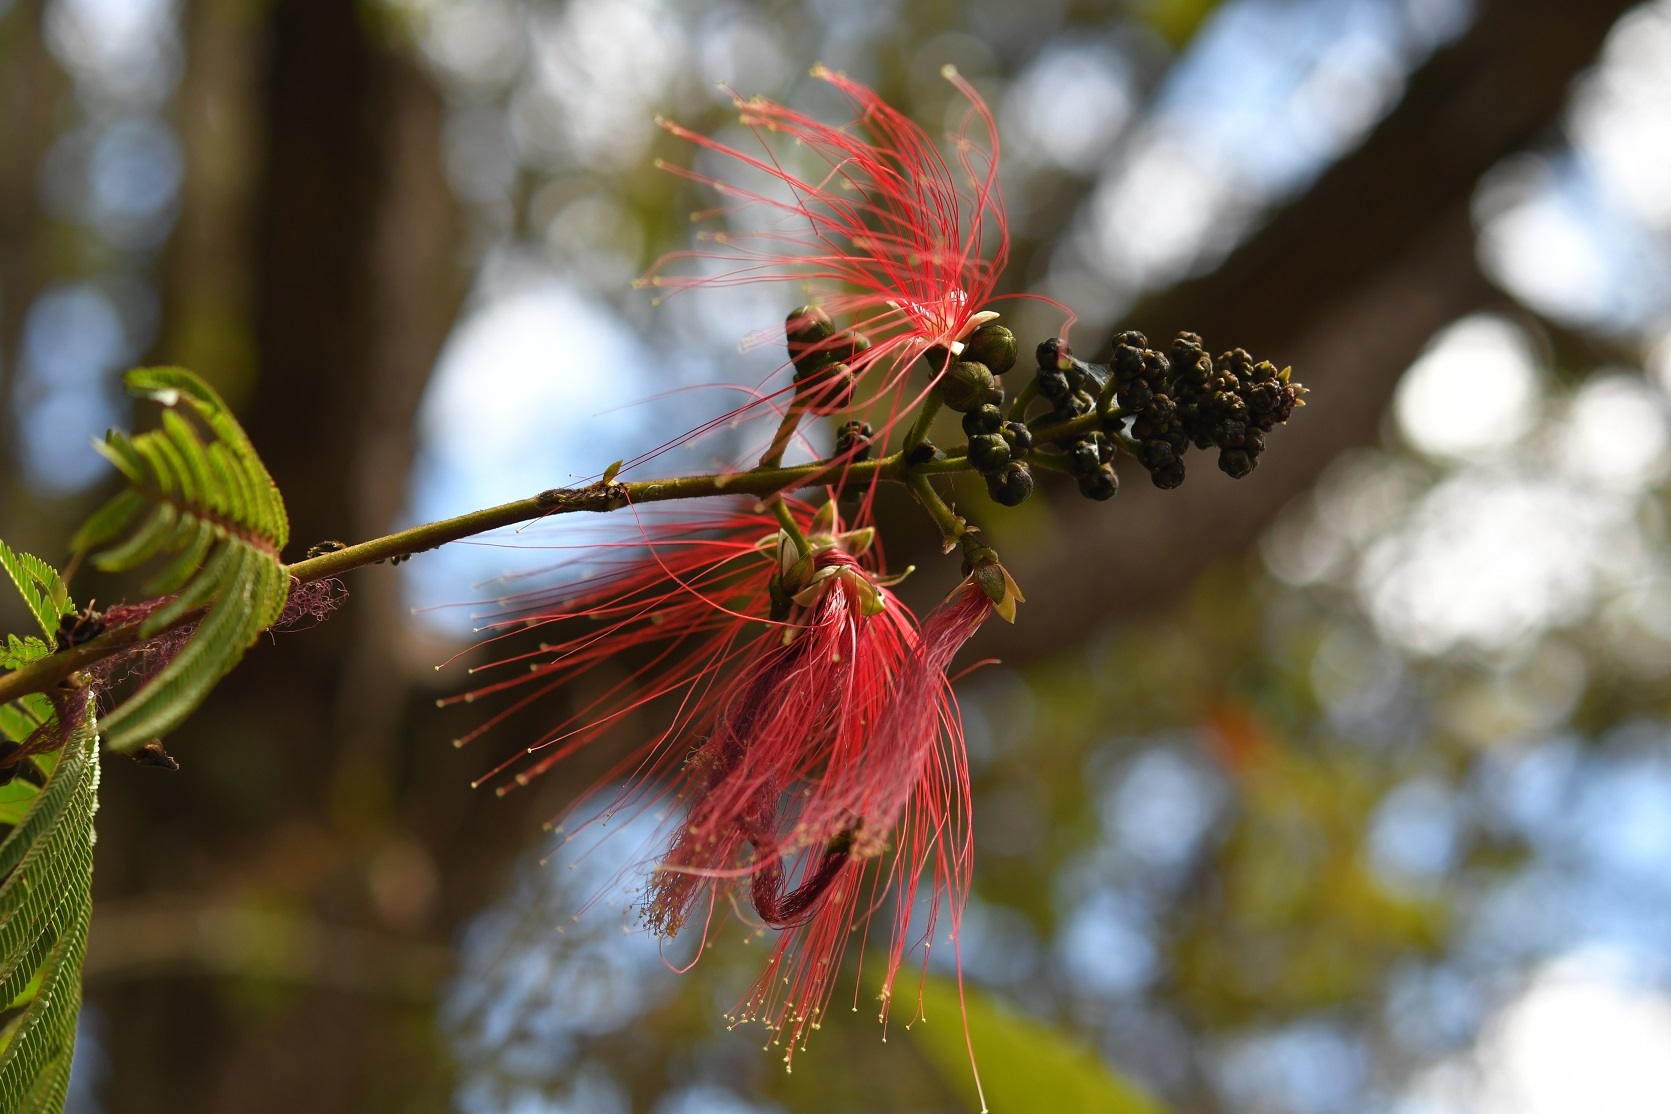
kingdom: Plantae
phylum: Tracheophyta
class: Magnoliopsida
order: Fabales
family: Fabaceae
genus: Calliandra
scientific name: Calliandra houstoniana
